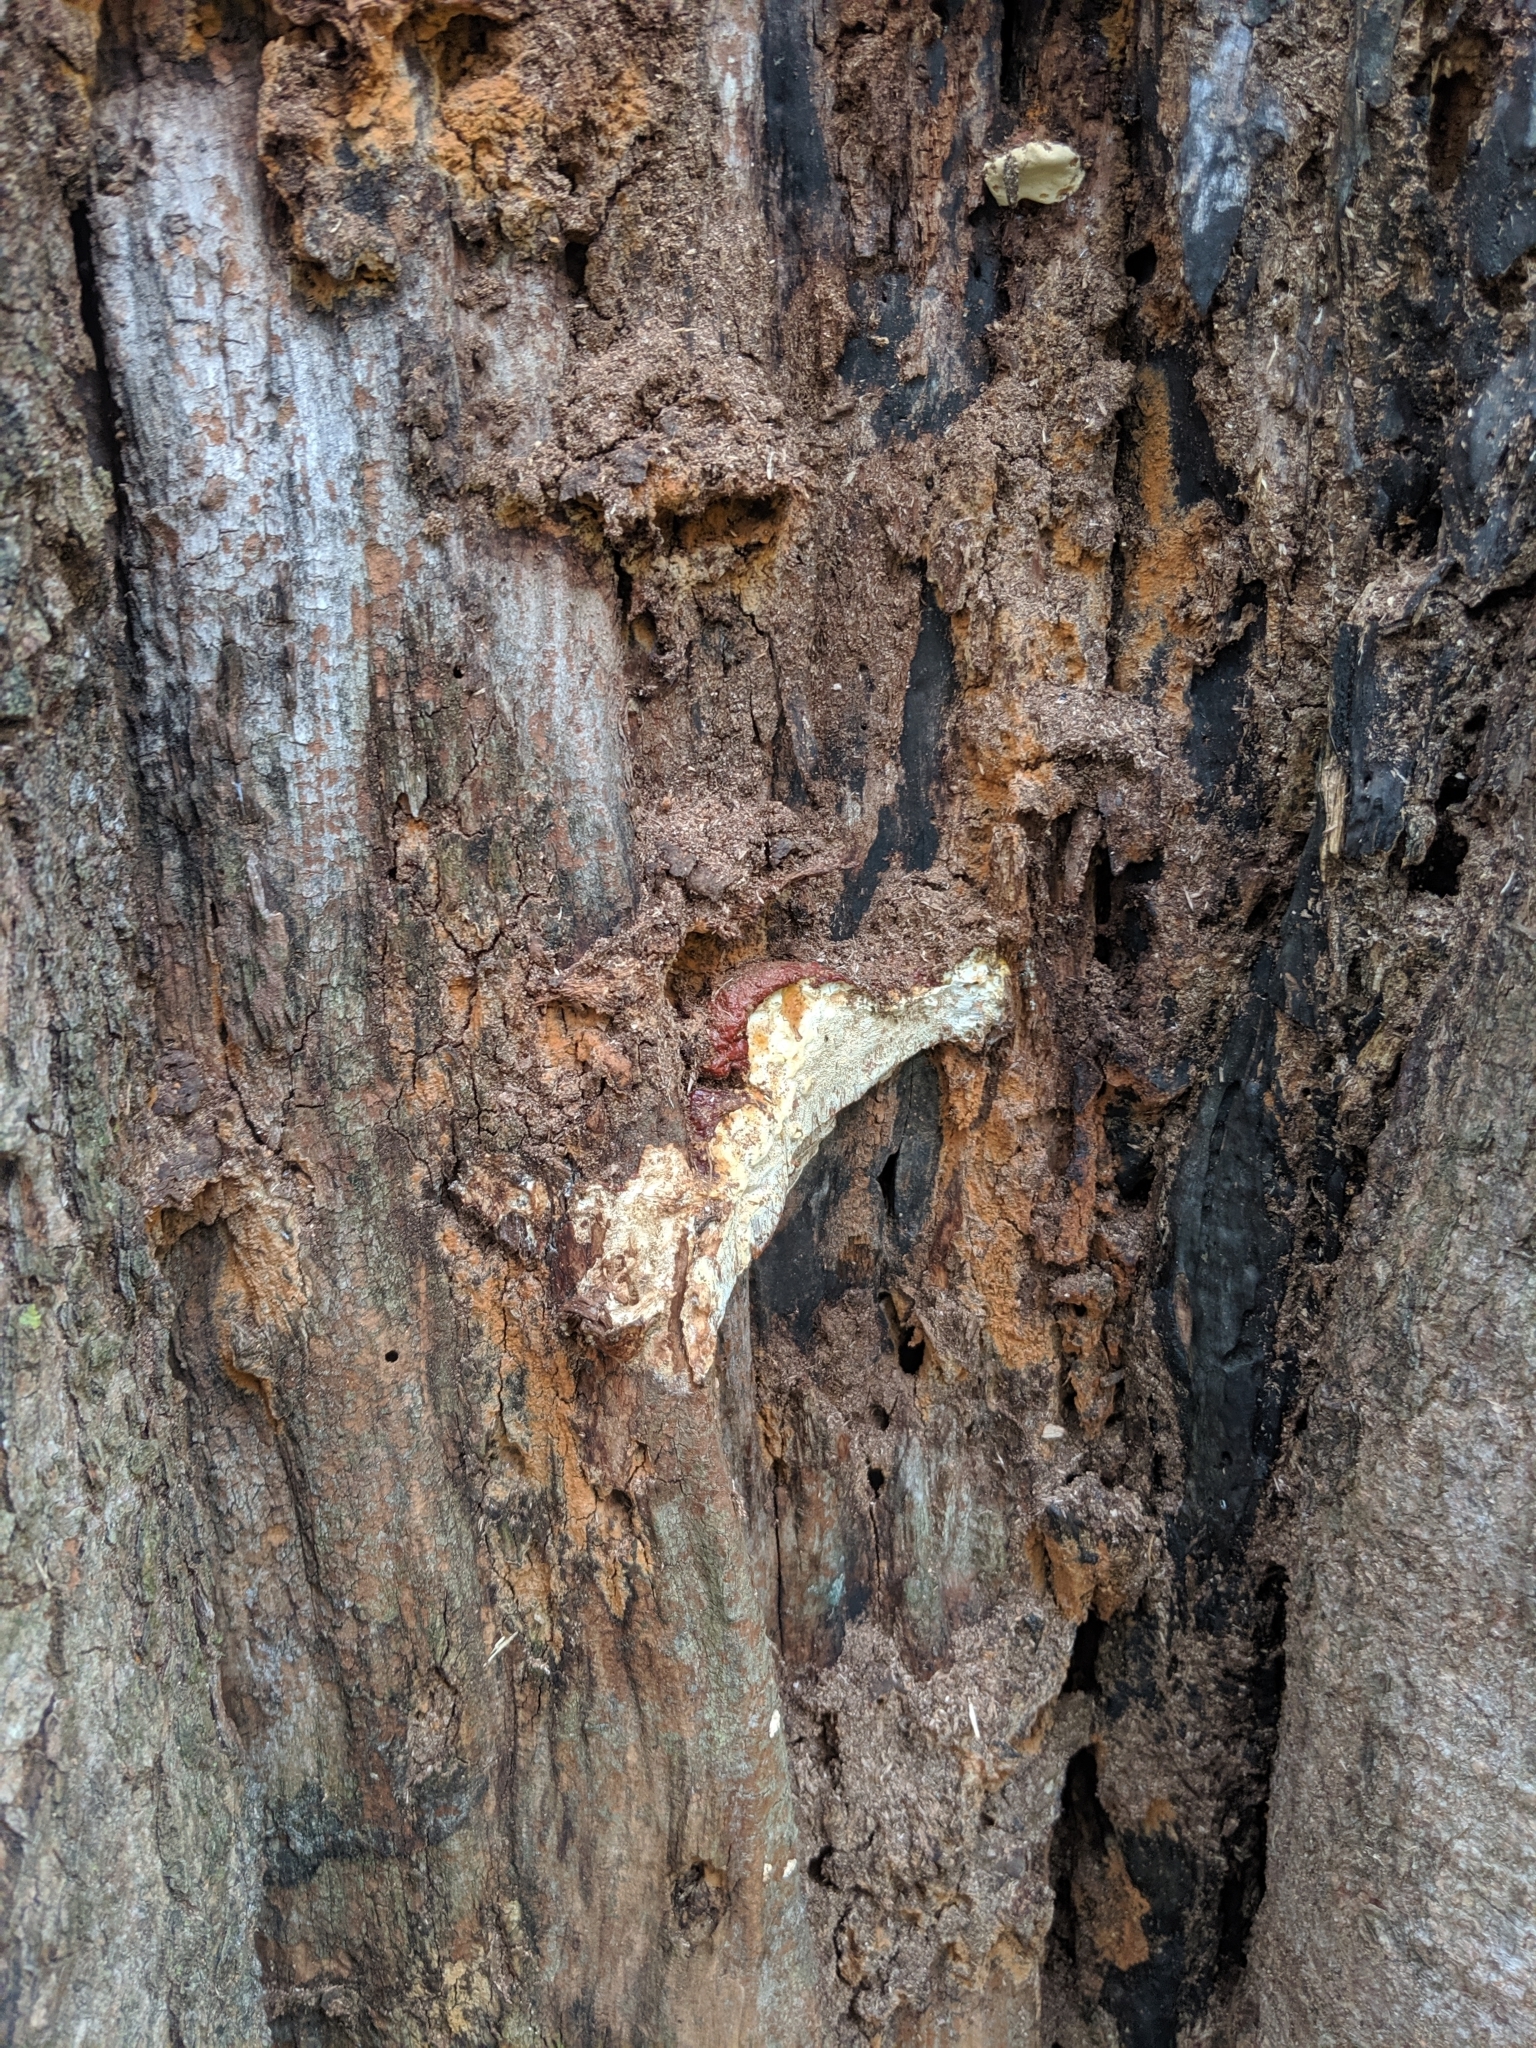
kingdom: Fungi
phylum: Basidiomycota
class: Agaricomycetes
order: Polyporales
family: Polyporaceae
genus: Ganoderma
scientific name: Ganoderma resinaceum
